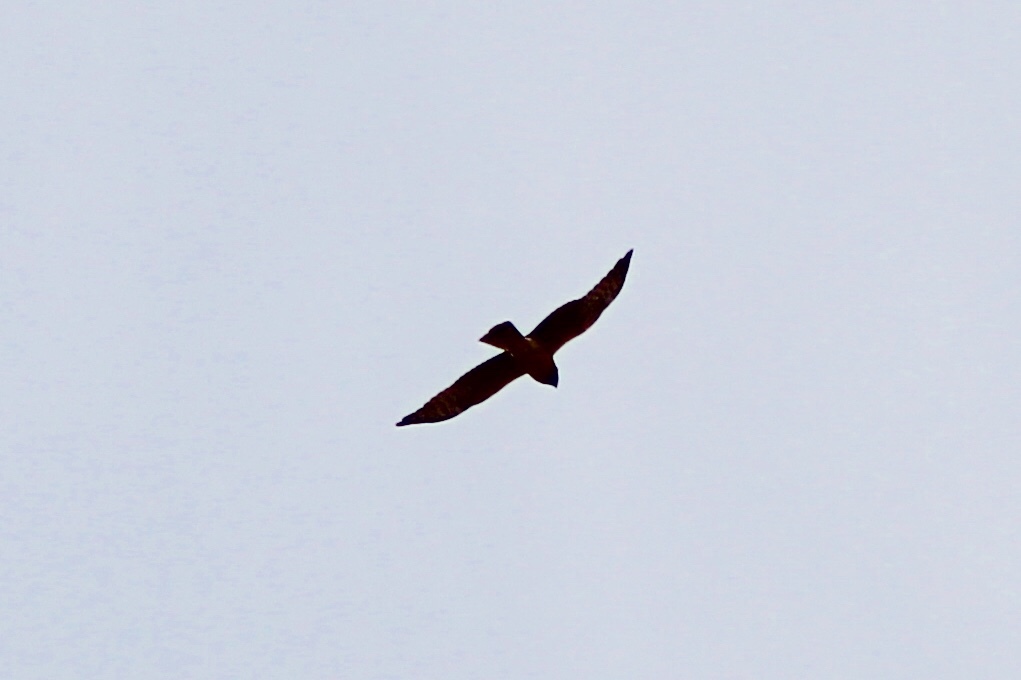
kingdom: Animalia
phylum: Chordata
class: Aves
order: Accipitriformes
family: Accipitridae
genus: Circus
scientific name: Circus cyaneus
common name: Hen harrier
